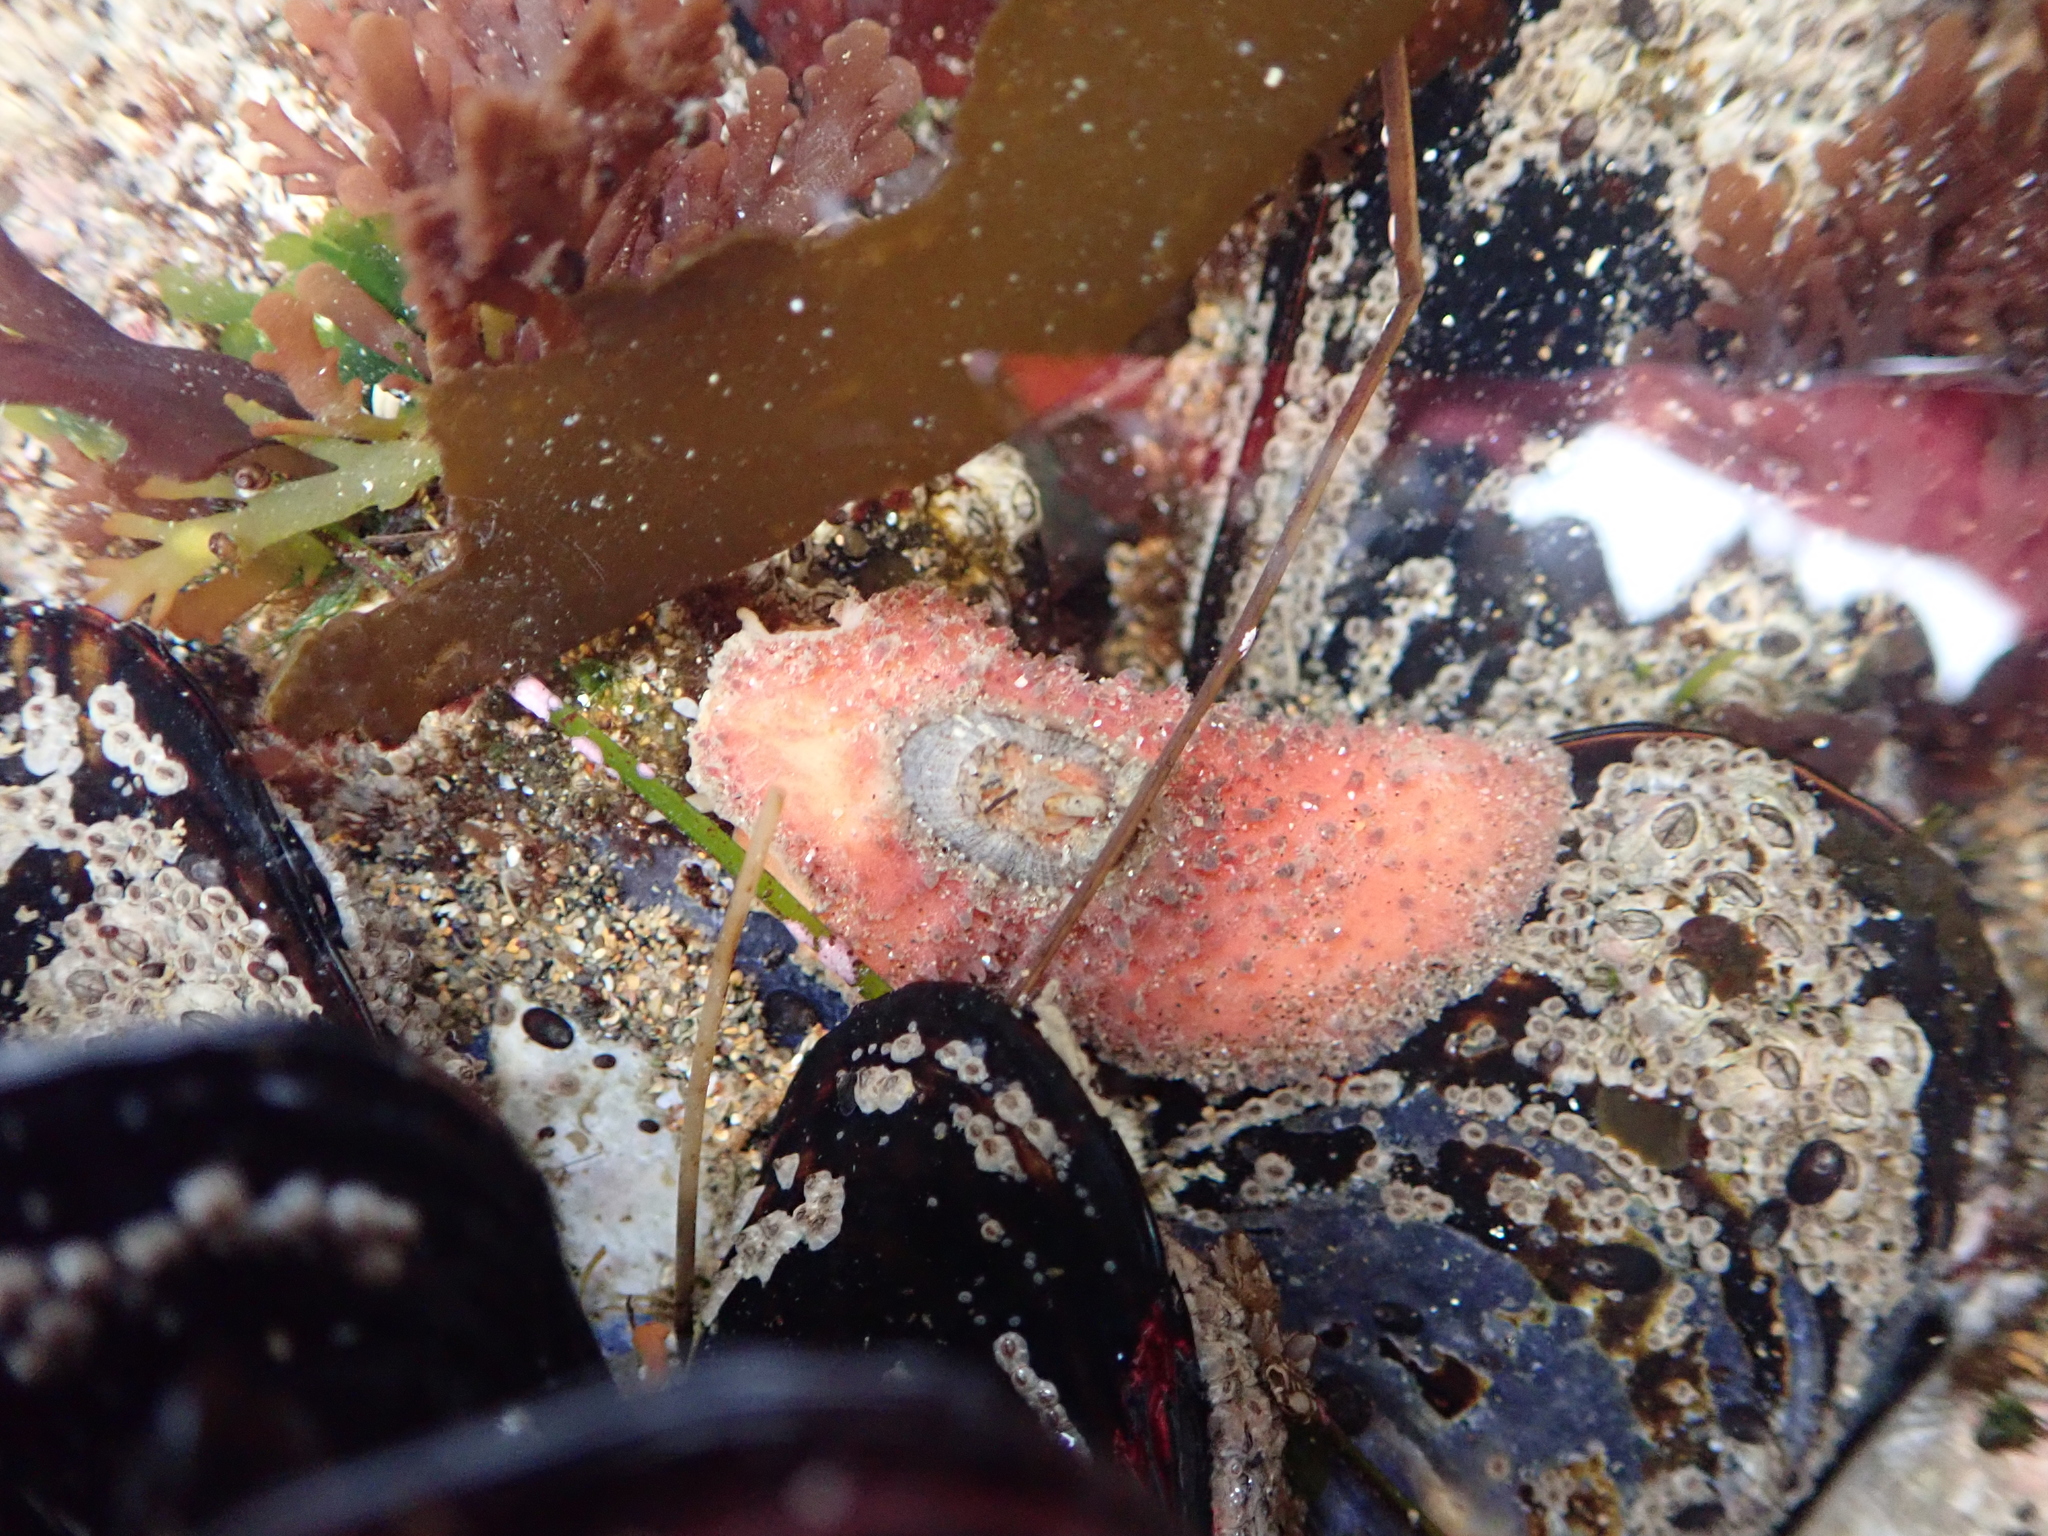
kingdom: Animalia
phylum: Mollusca
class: Gastropoda
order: Lepetellida
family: Fissurellidae
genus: Fissurellidea
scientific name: Fissurellidea bimaculata
